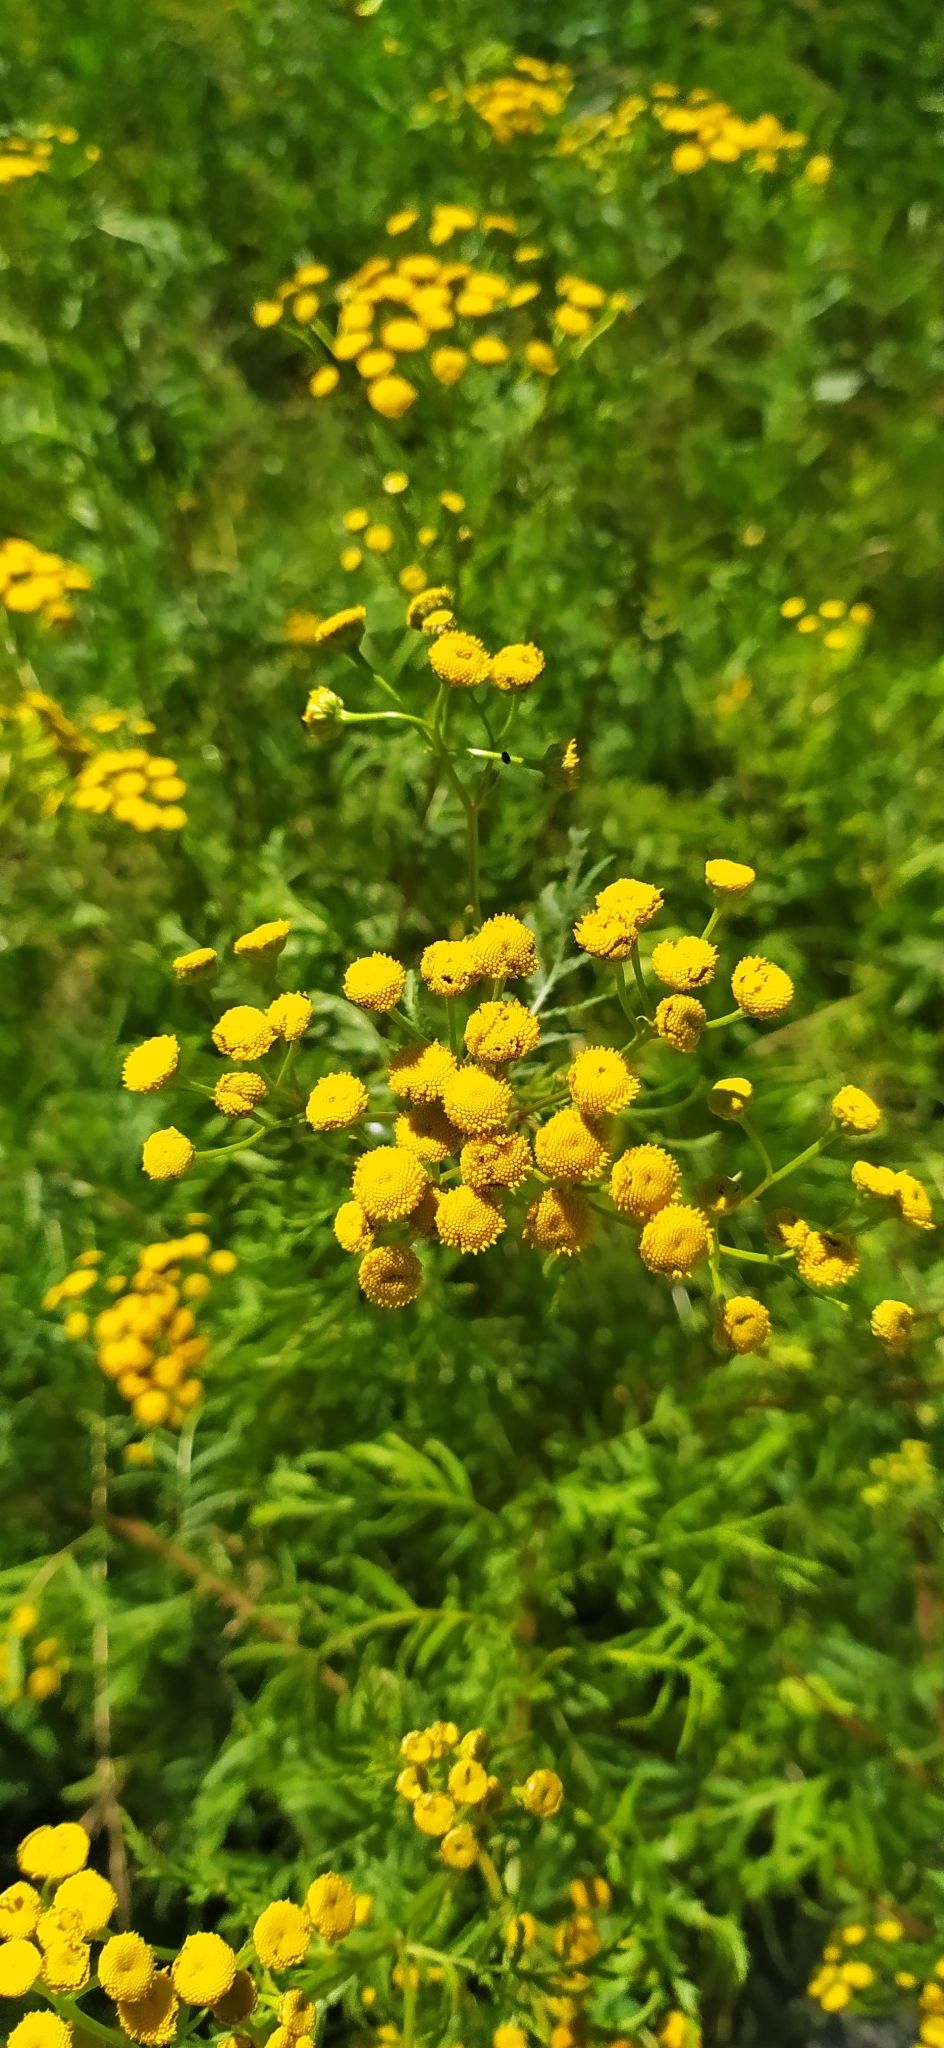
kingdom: Plantae
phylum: Tracheophyta
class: Magnoliopsida
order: Asterales
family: Asteraceae
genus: Tanacetum
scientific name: Tanacetum vulgare
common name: Common tansy
